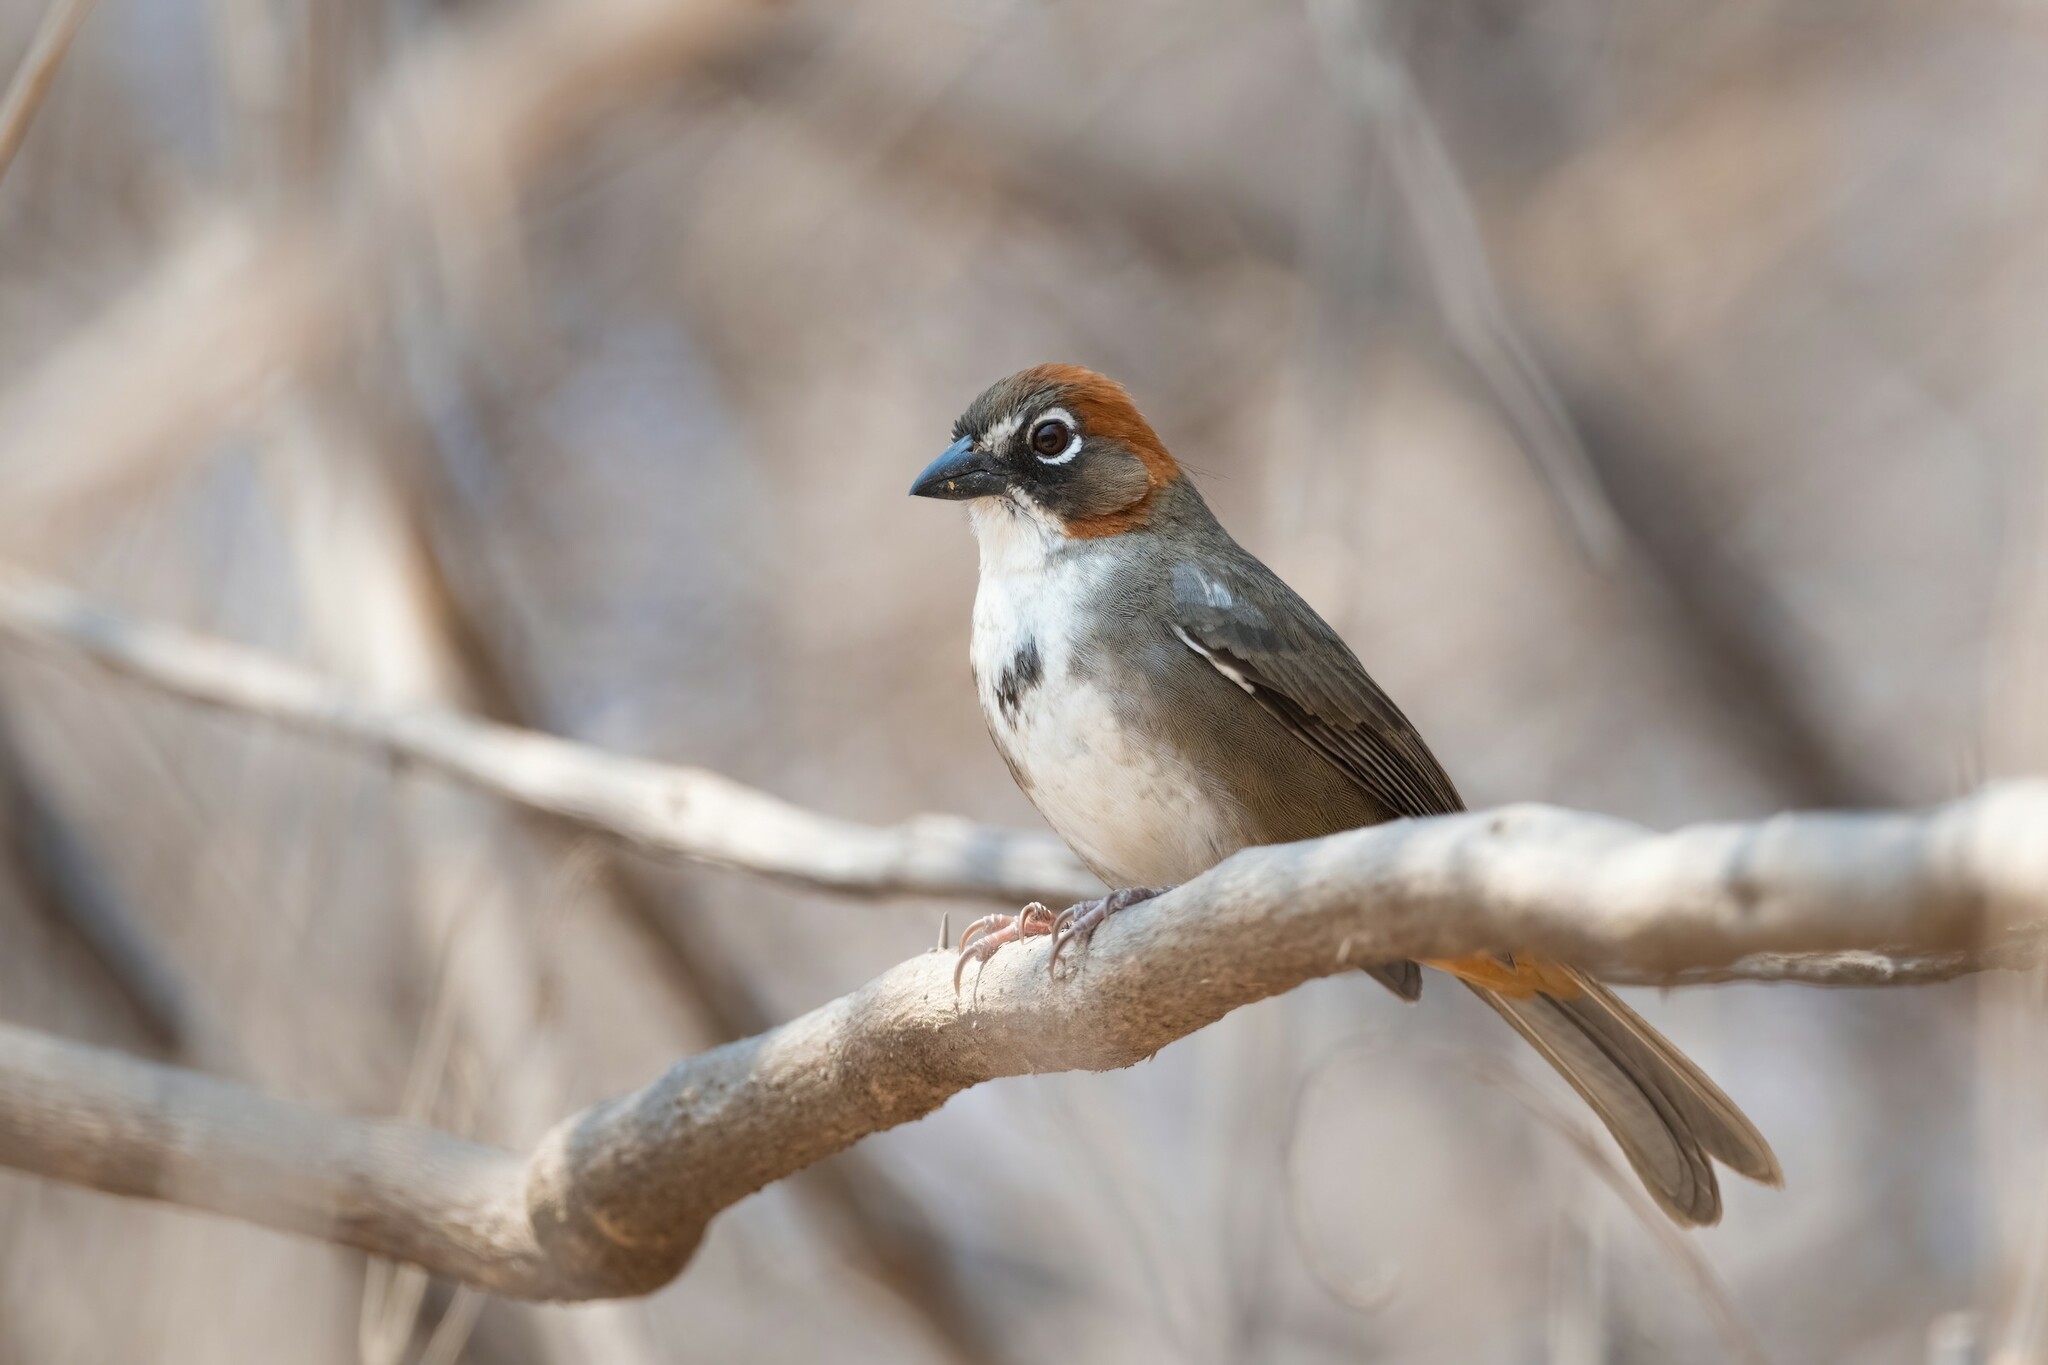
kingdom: Animalia
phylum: Chordata
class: Aves
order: Passeriformes
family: Passerellidae
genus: Melozone
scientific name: Melozone kieneri
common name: Rusty-crowned ground-sparrow
